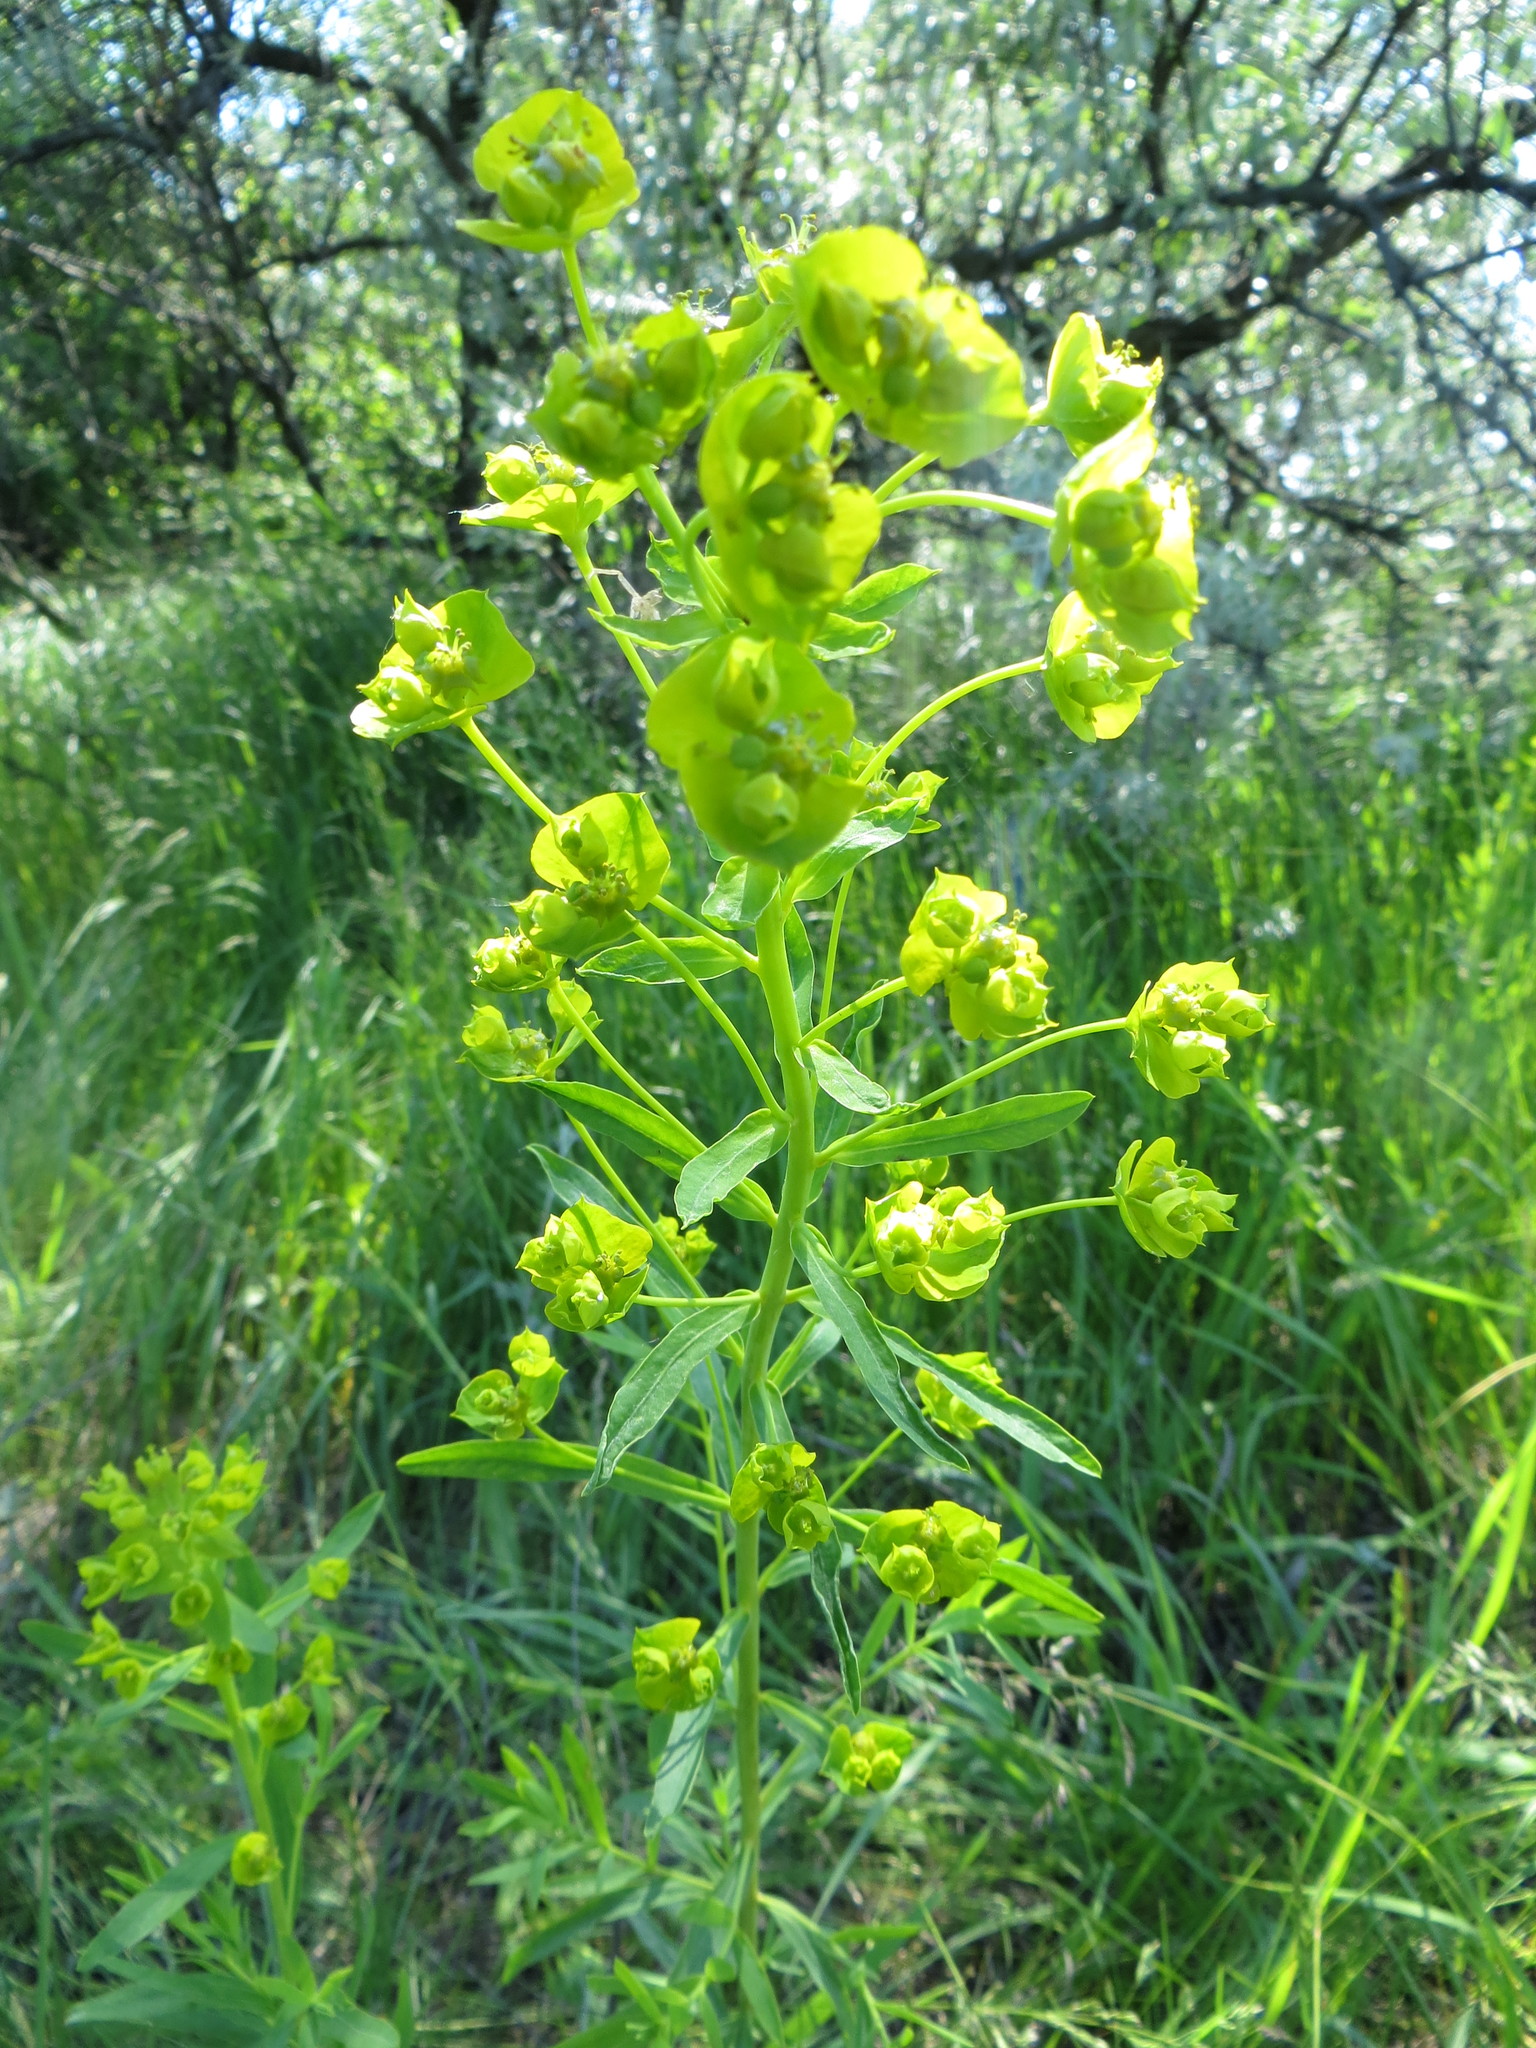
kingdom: Plantae
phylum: Tracheophyta
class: Magnoliopsida
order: Malpighiales
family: Euphorbiaceae
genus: Euphorbia
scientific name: Euphorbia virgata
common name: Leafy spurge
